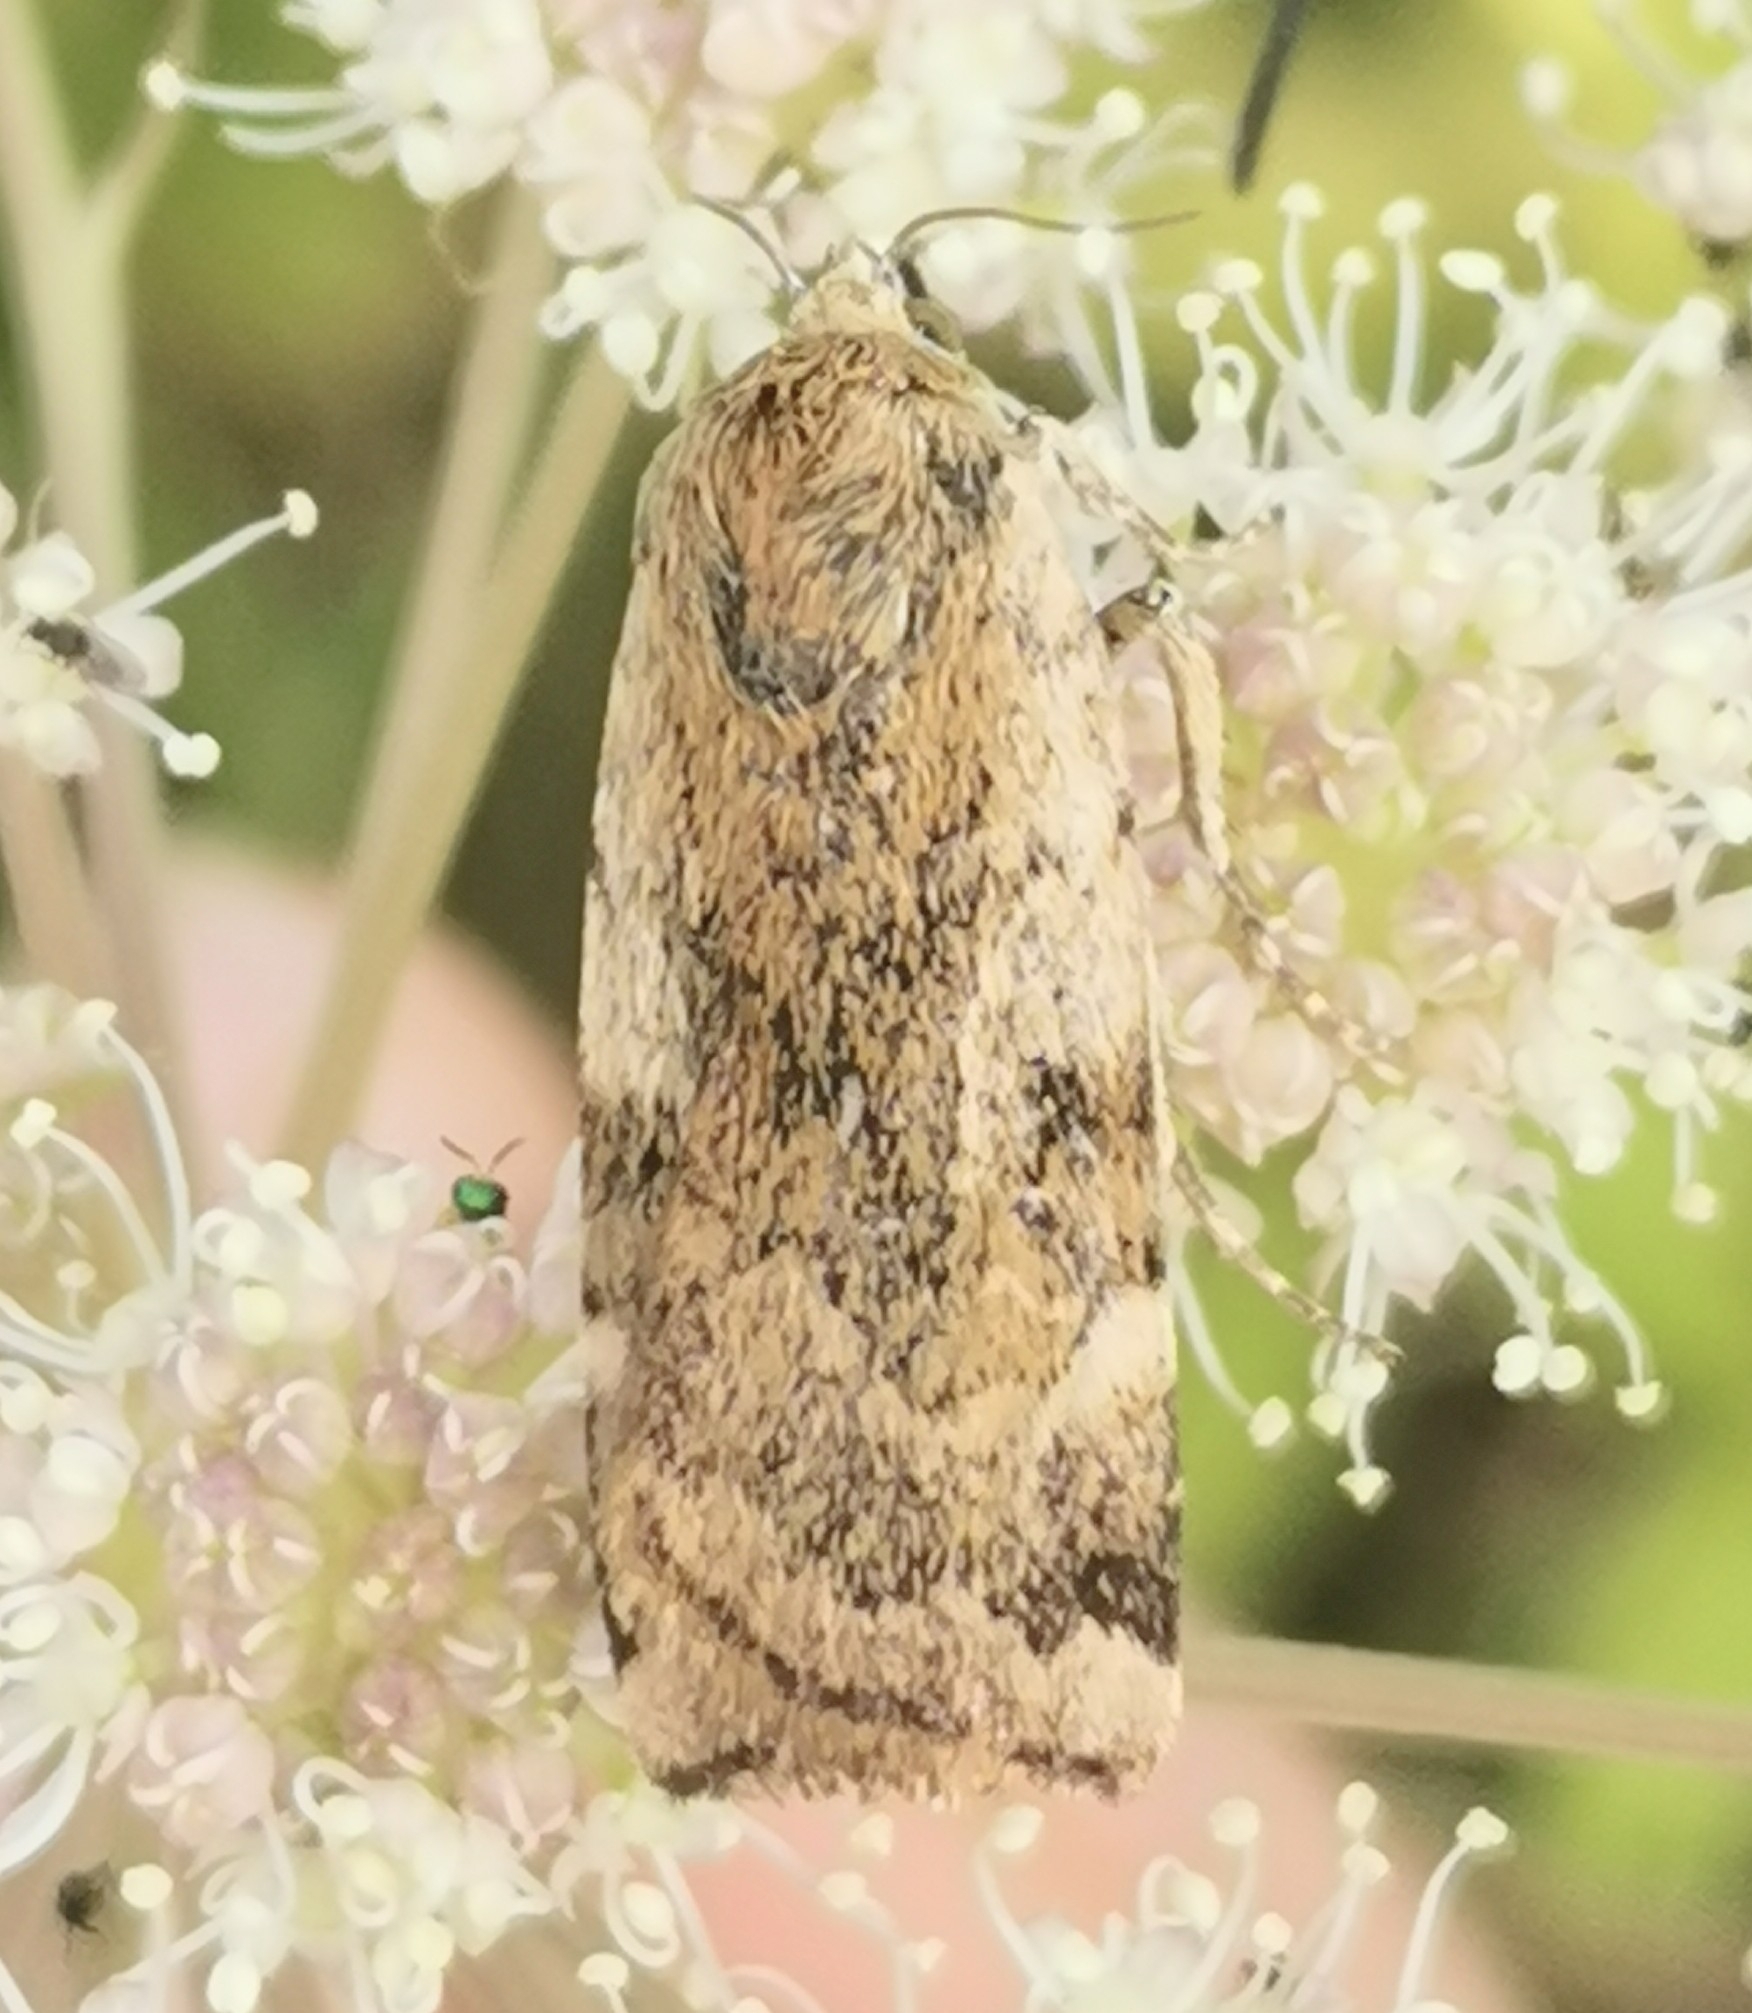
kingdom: Animalia
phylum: Arthropoda
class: Insecta
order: Lepidoptera
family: Noctuidae
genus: Cryptocala
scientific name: Cryptocala chardinyi
